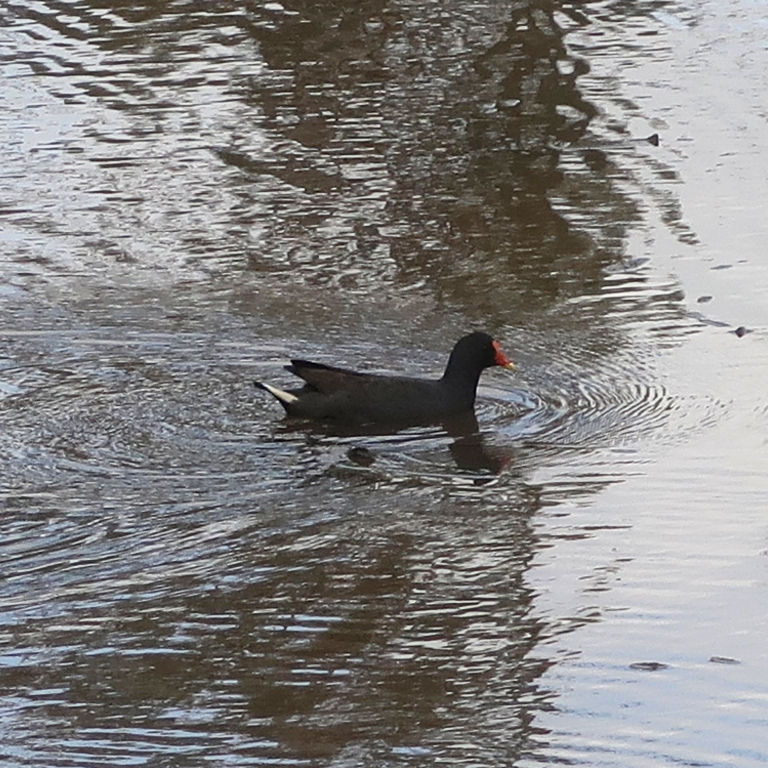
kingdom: Animalia
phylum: Chordata
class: Aves
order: Gruiformes
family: Rallidae
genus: Gallinula
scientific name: Gallinula tenebrosa
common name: Dusky moorhen
